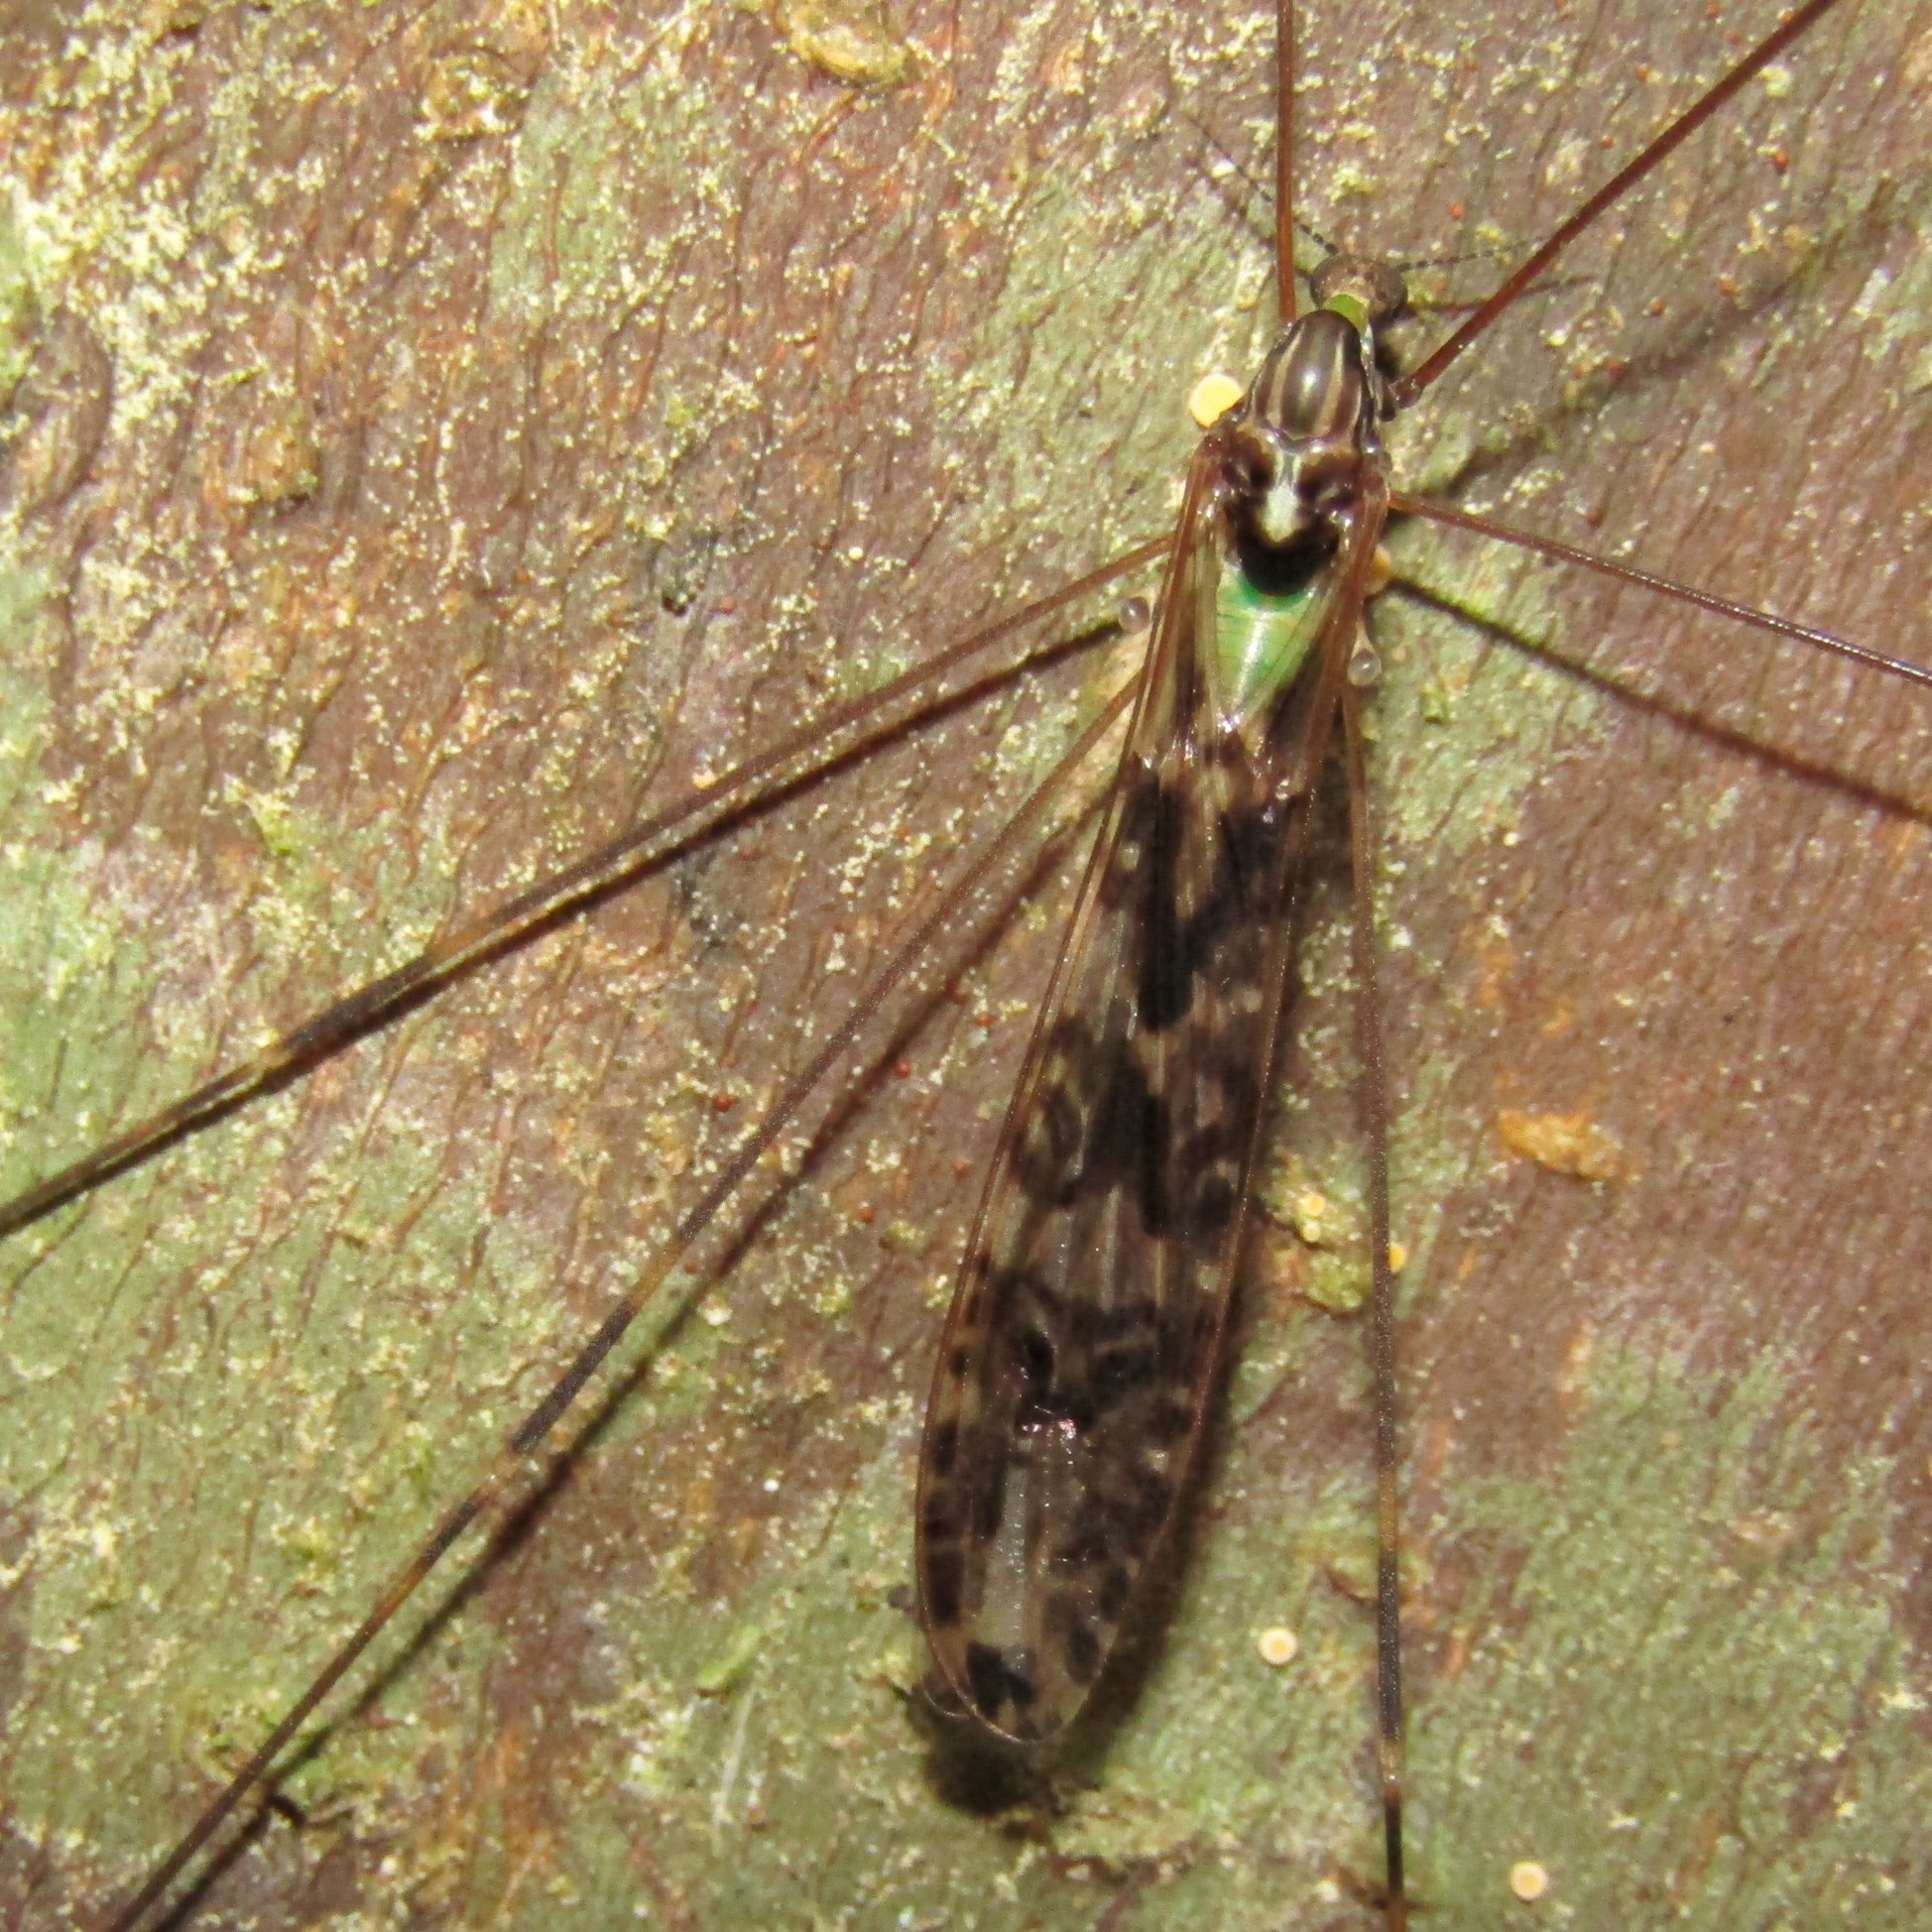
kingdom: Animalia
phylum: Arthropoda
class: Insecta
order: Diptera
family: Limoniidae
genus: Discobola
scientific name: Discobola dohrni
